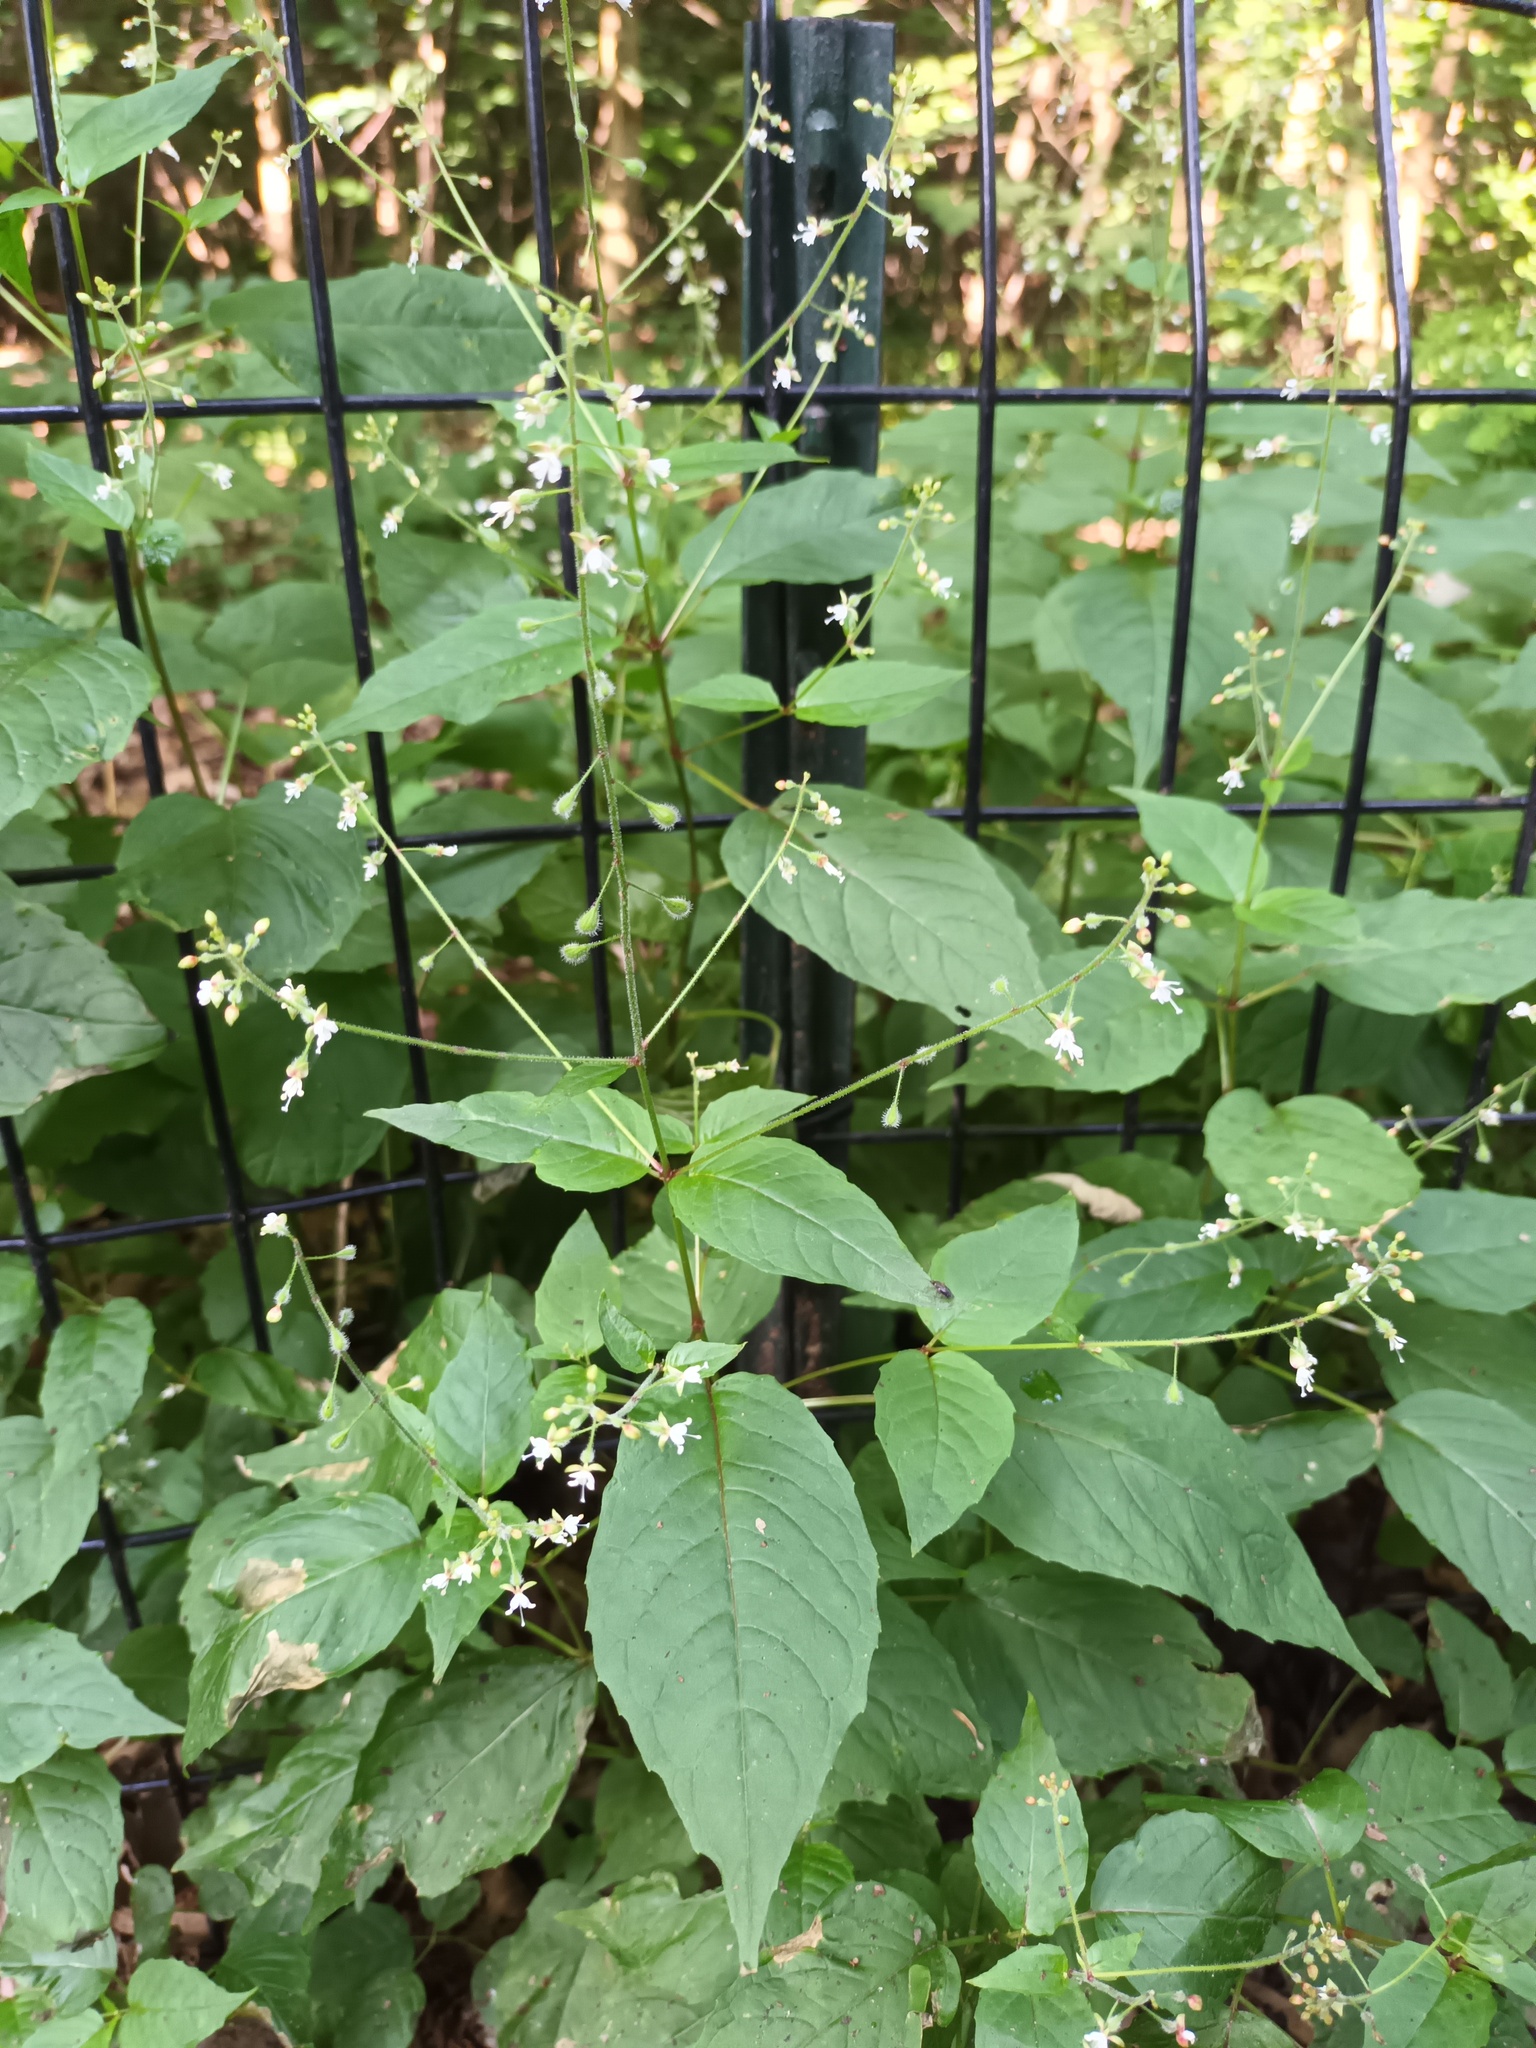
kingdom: Plantae
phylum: Tracheophyta
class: Magnoliopsida
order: Myrtales
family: Onagraceae
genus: Circaea
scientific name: Circaea canadensis
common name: Broad-leaved enchanter's nightshade
